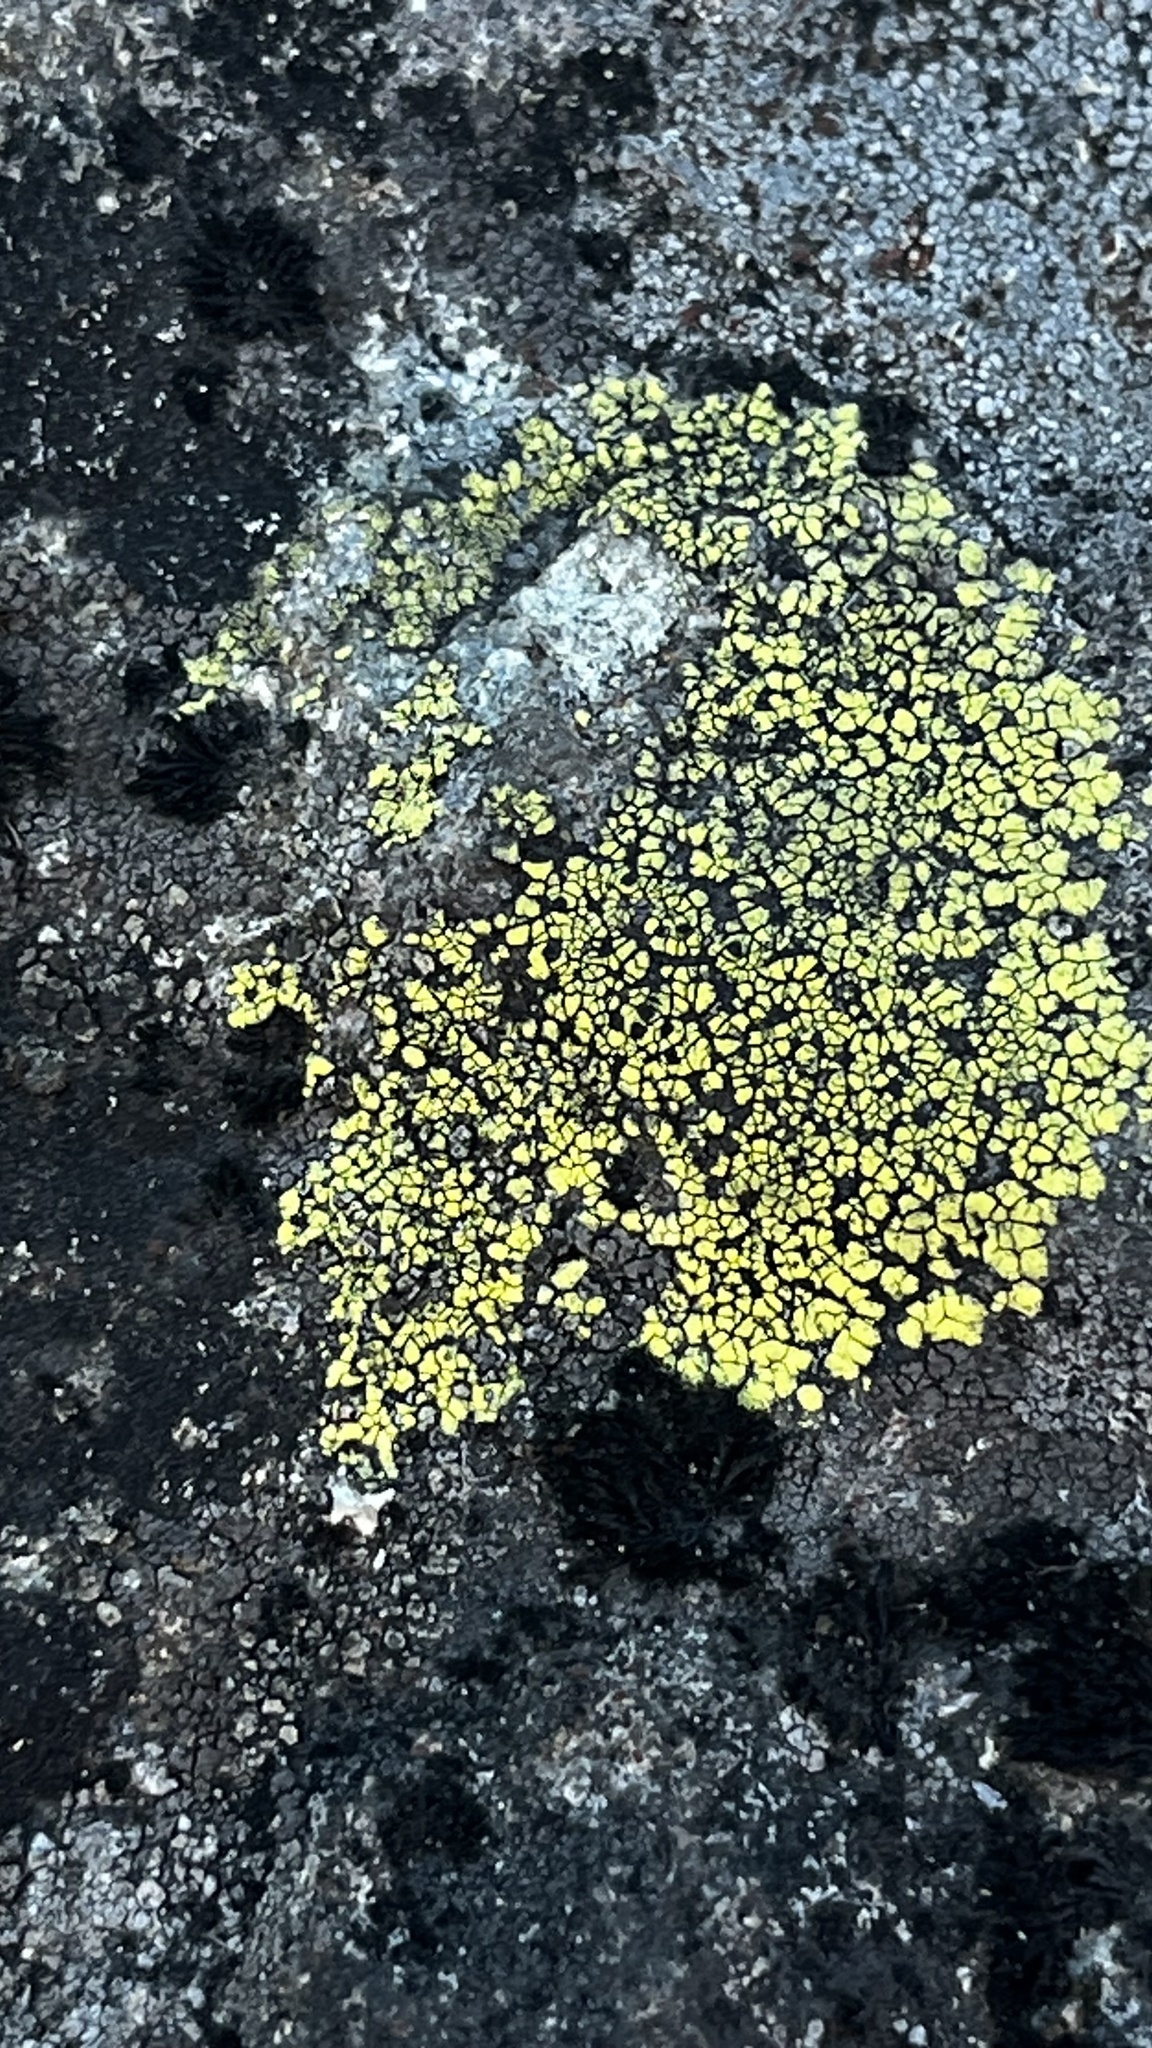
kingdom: Fungi
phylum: Ascomycota
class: Lecanoromycetes
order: Rhizocarpales
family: Rhizocarpaceae
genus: Rhizocarpon
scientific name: Rhizocarpon geographicum
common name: Yellow map lichen
